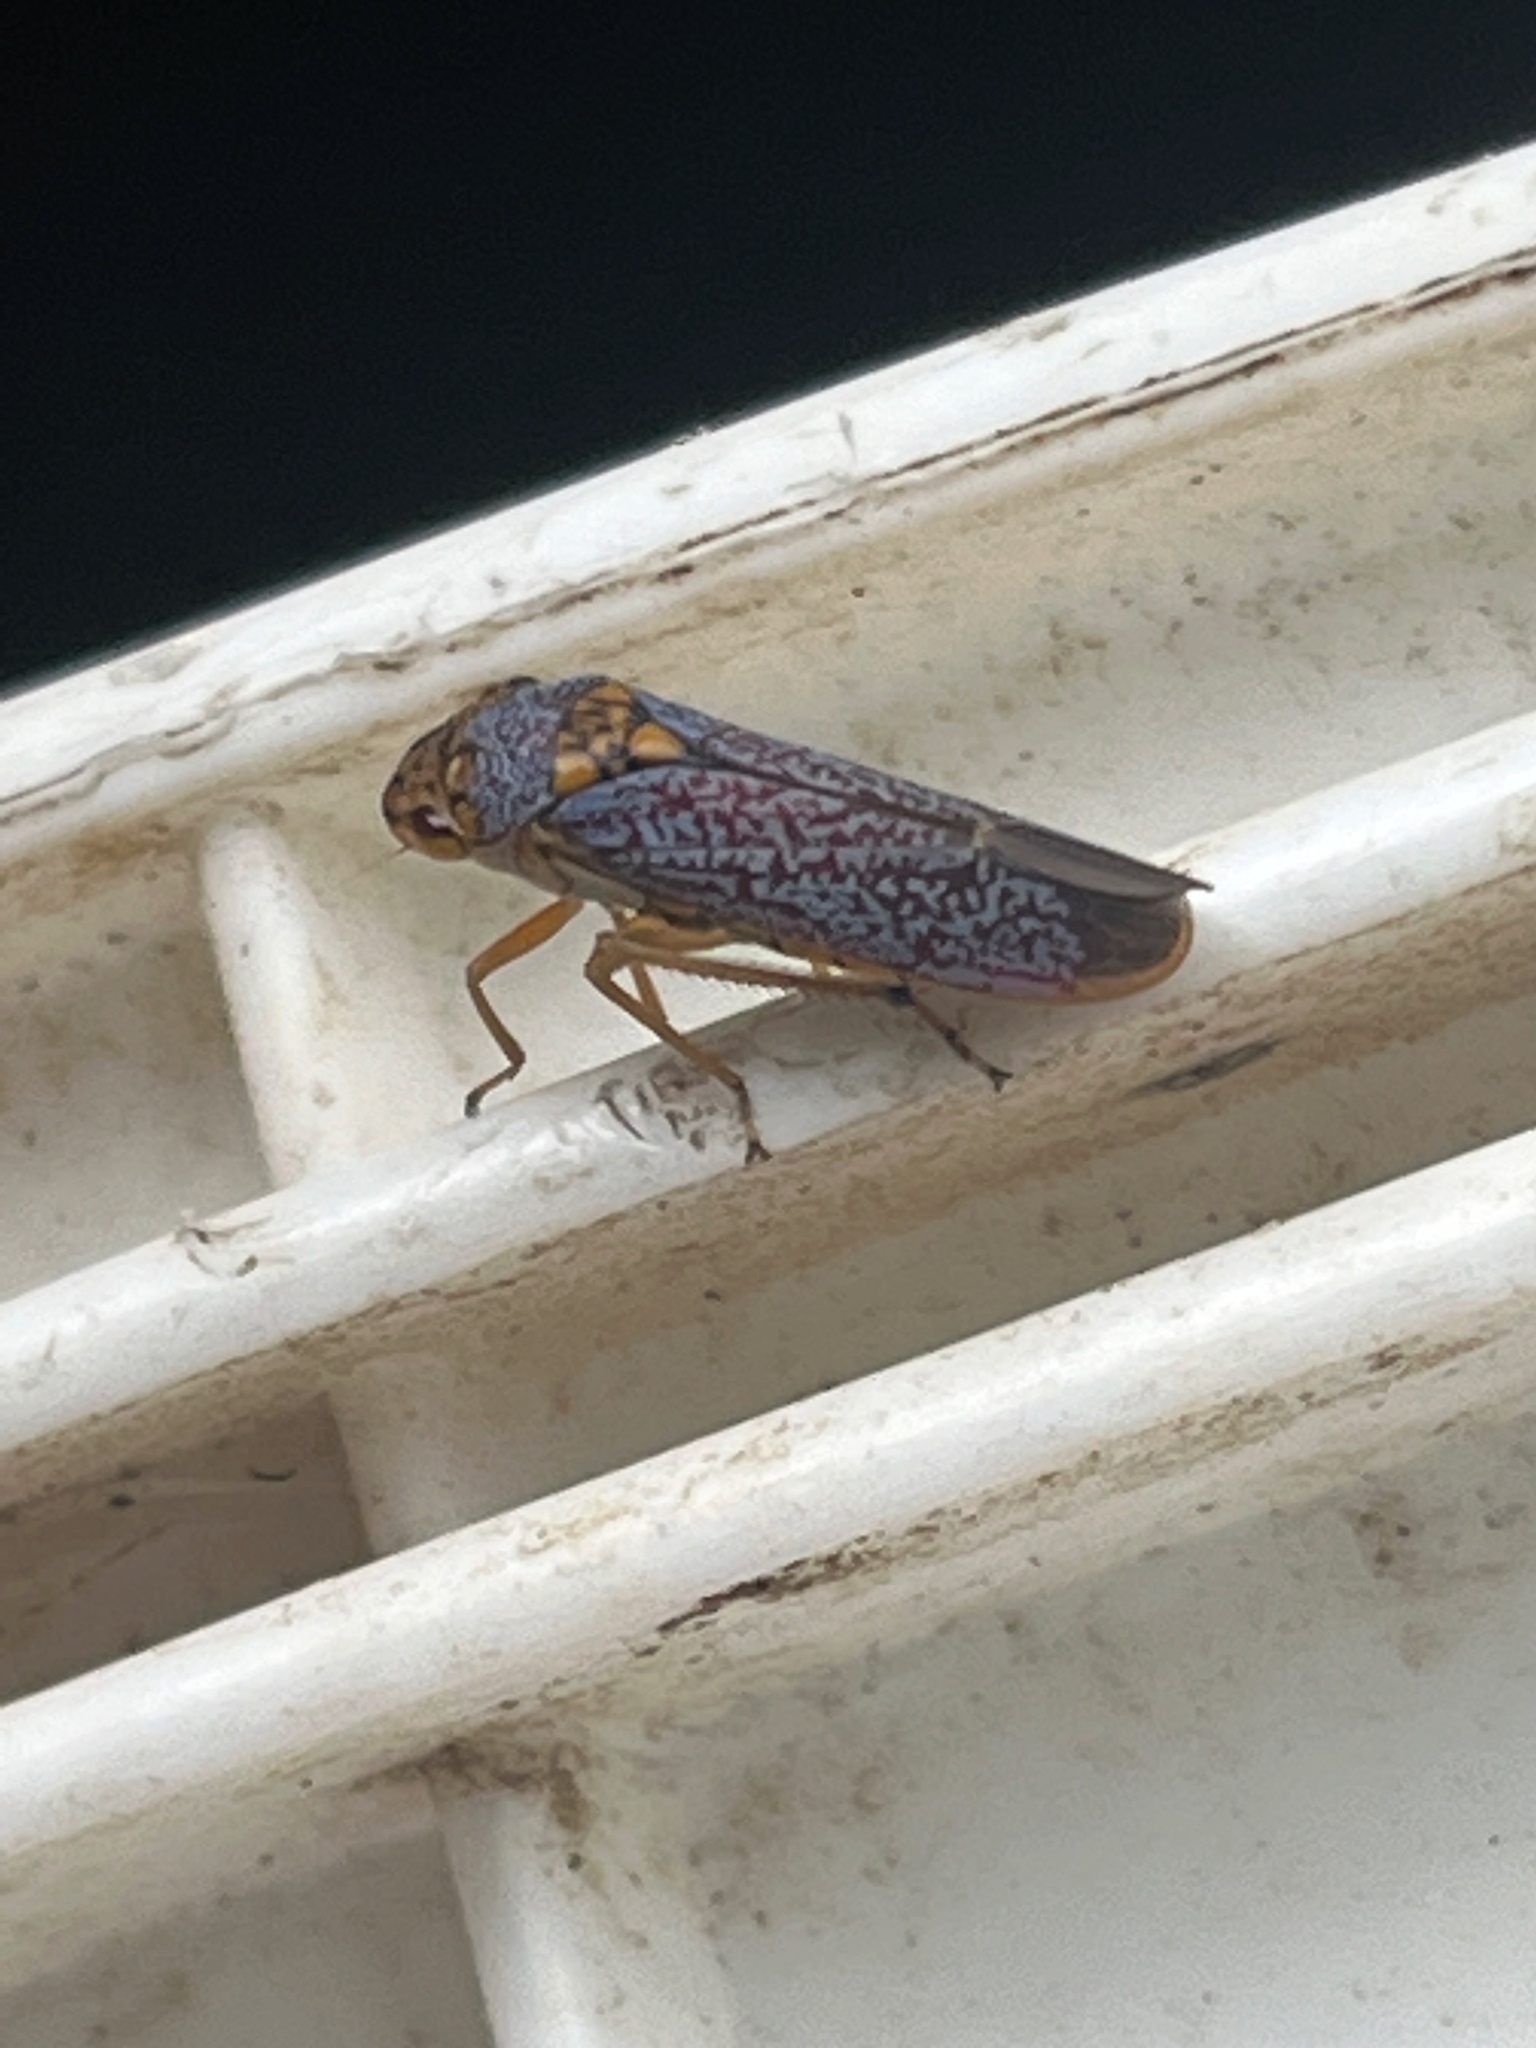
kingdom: Animalia
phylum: Arthropoda
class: Insecta
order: Hemiptera
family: Cicadellidae
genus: Oncometopia
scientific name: Oncometopia orbona
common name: Broad-headed sharpshooter
